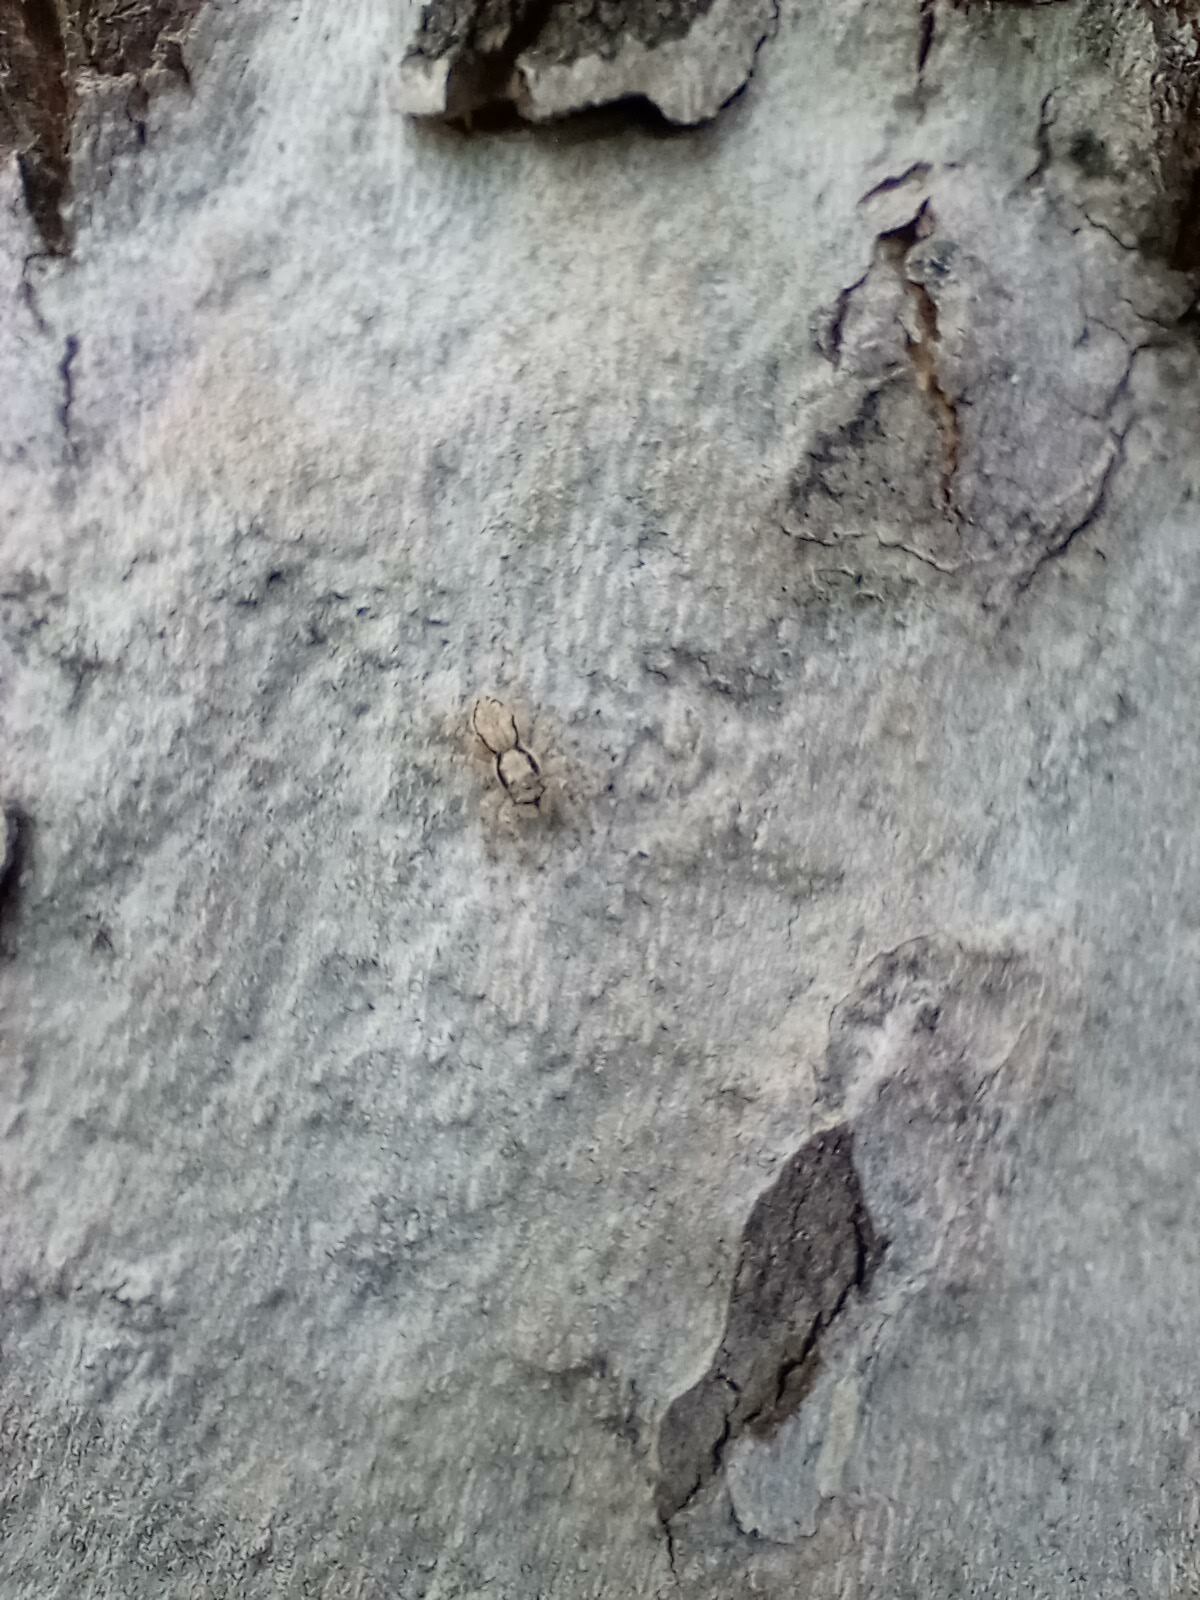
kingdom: Animalia
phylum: Arthropoda
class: Arachnida
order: Araneae
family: Salticidae
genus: Menemerus
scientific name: Menemerus bivittatus
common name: Gray wall jumper
